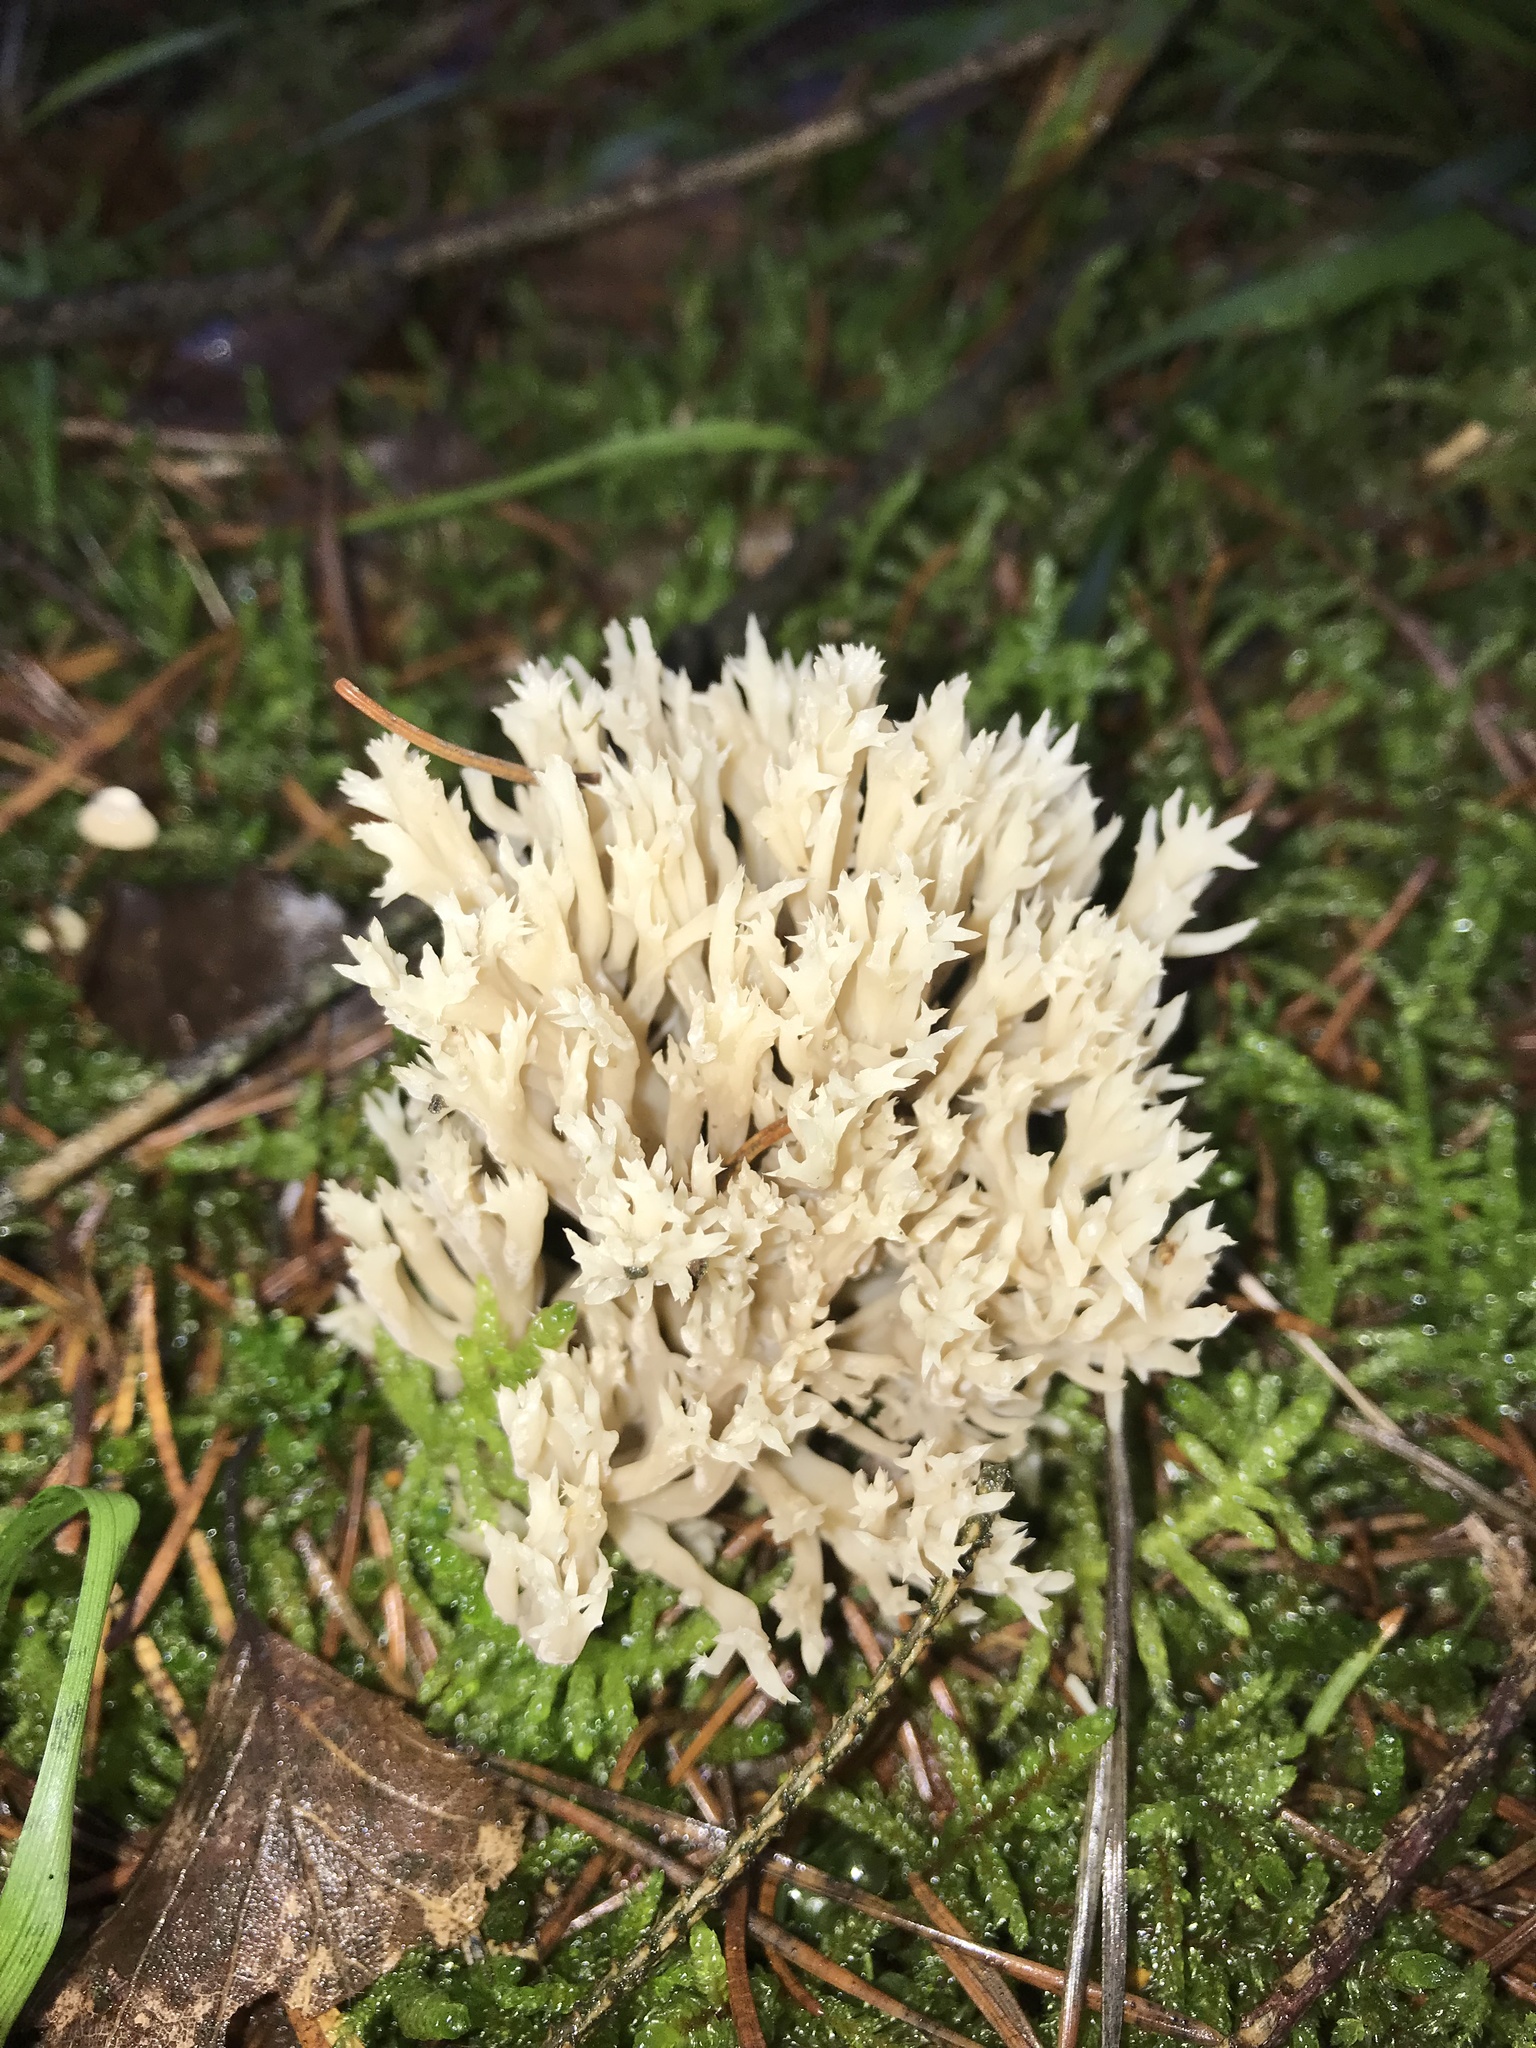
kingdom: Fungi
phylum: Basidiomycota
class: Agaricomycetes
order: Cantharellales
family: Hydnaceae
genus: Clavulina
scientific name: Clavulina coralloides
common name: Crested coral
